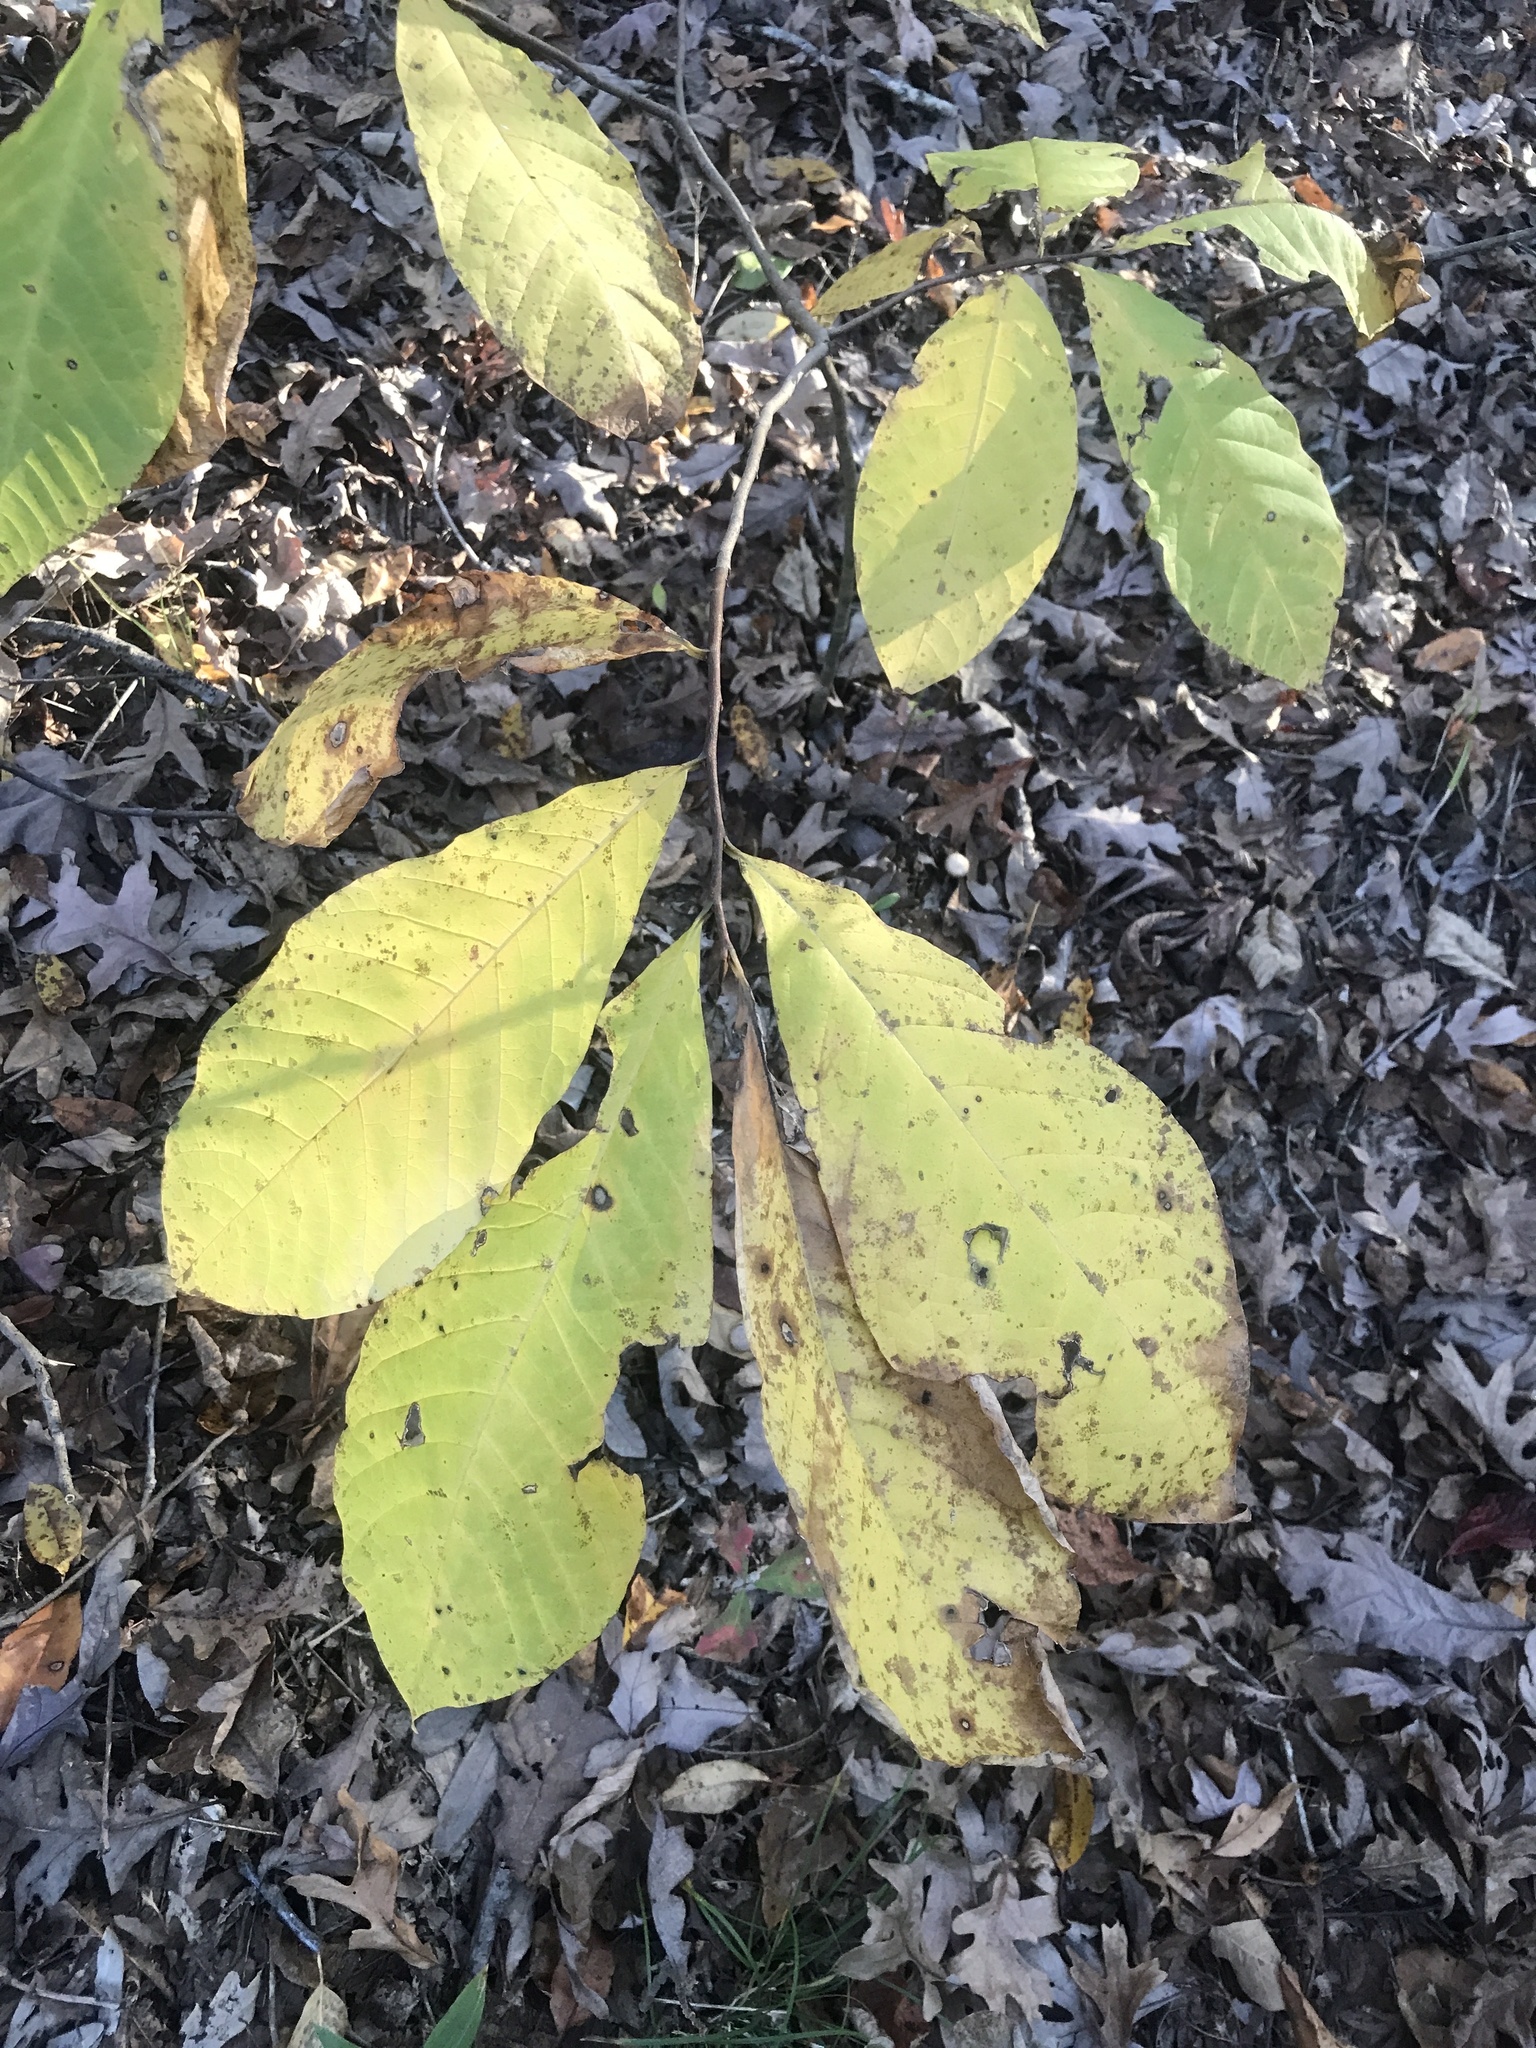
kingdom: Plantae
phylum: Tracheophyta
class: Magnoliopsida
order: Magnoliales
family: Annonaceae
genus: Asimina
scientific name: Asimina triloba
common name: Dog-banana
